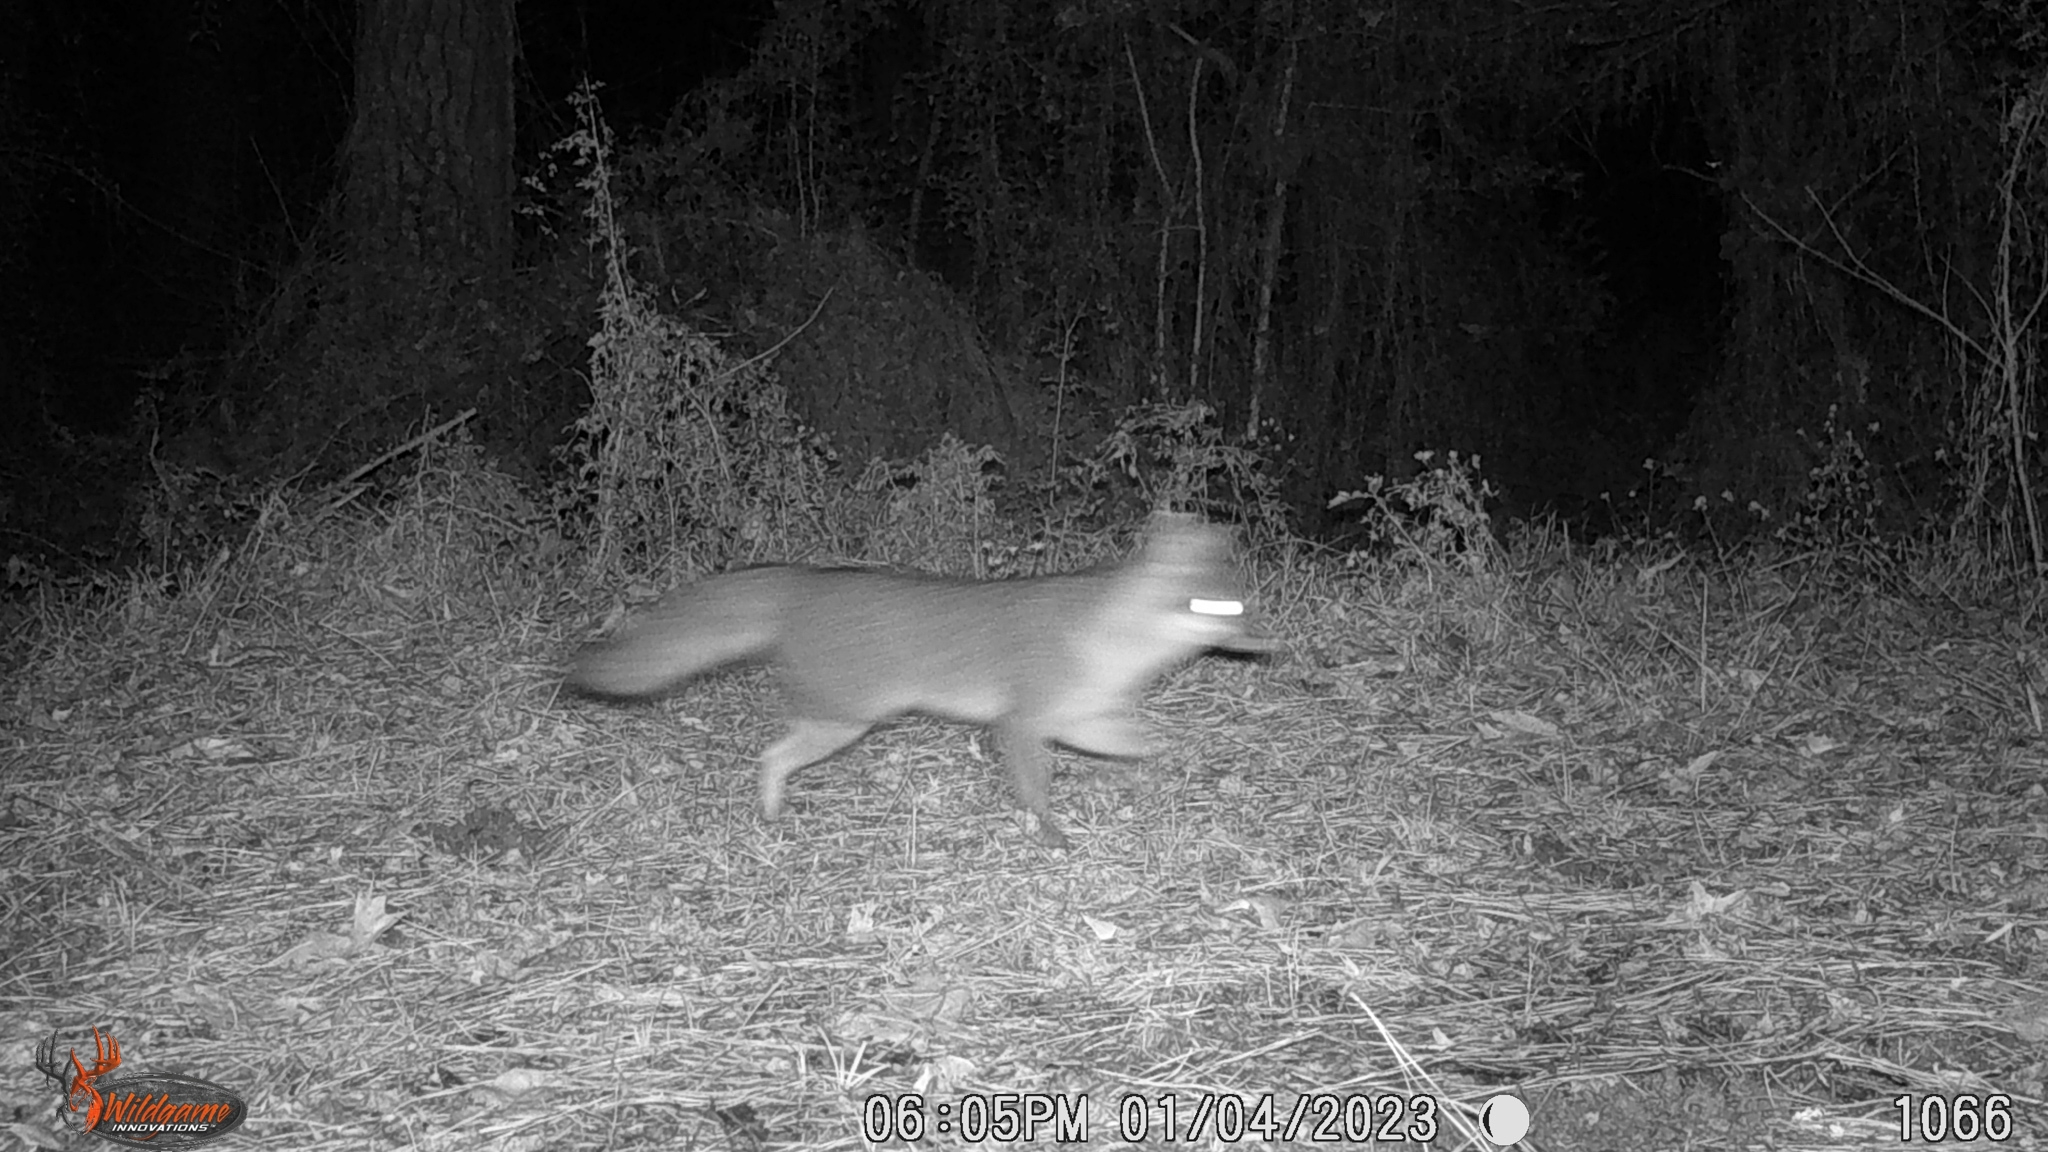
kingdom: Animalia
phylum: Chordata
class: Mammalia
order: Carnivora
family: Canidae
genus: Urocyon
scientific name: Urocyon cinereoargenteus
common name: Gray fox
